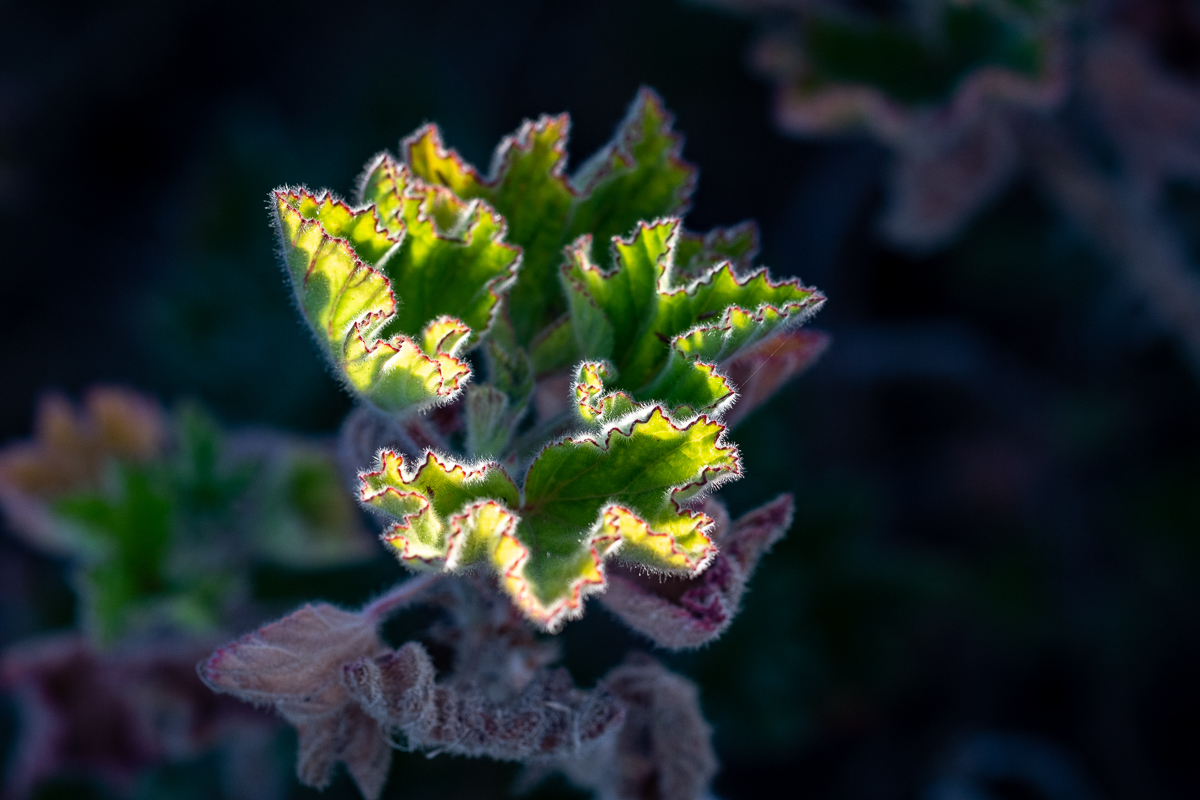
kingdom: Plantae
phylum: Tracheophyta
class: Magnoliopsida
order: Geraniales
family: Geraniaceae
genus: Pelargonium
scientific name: Pelargonium cucullatum
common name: Tree pelargonium
